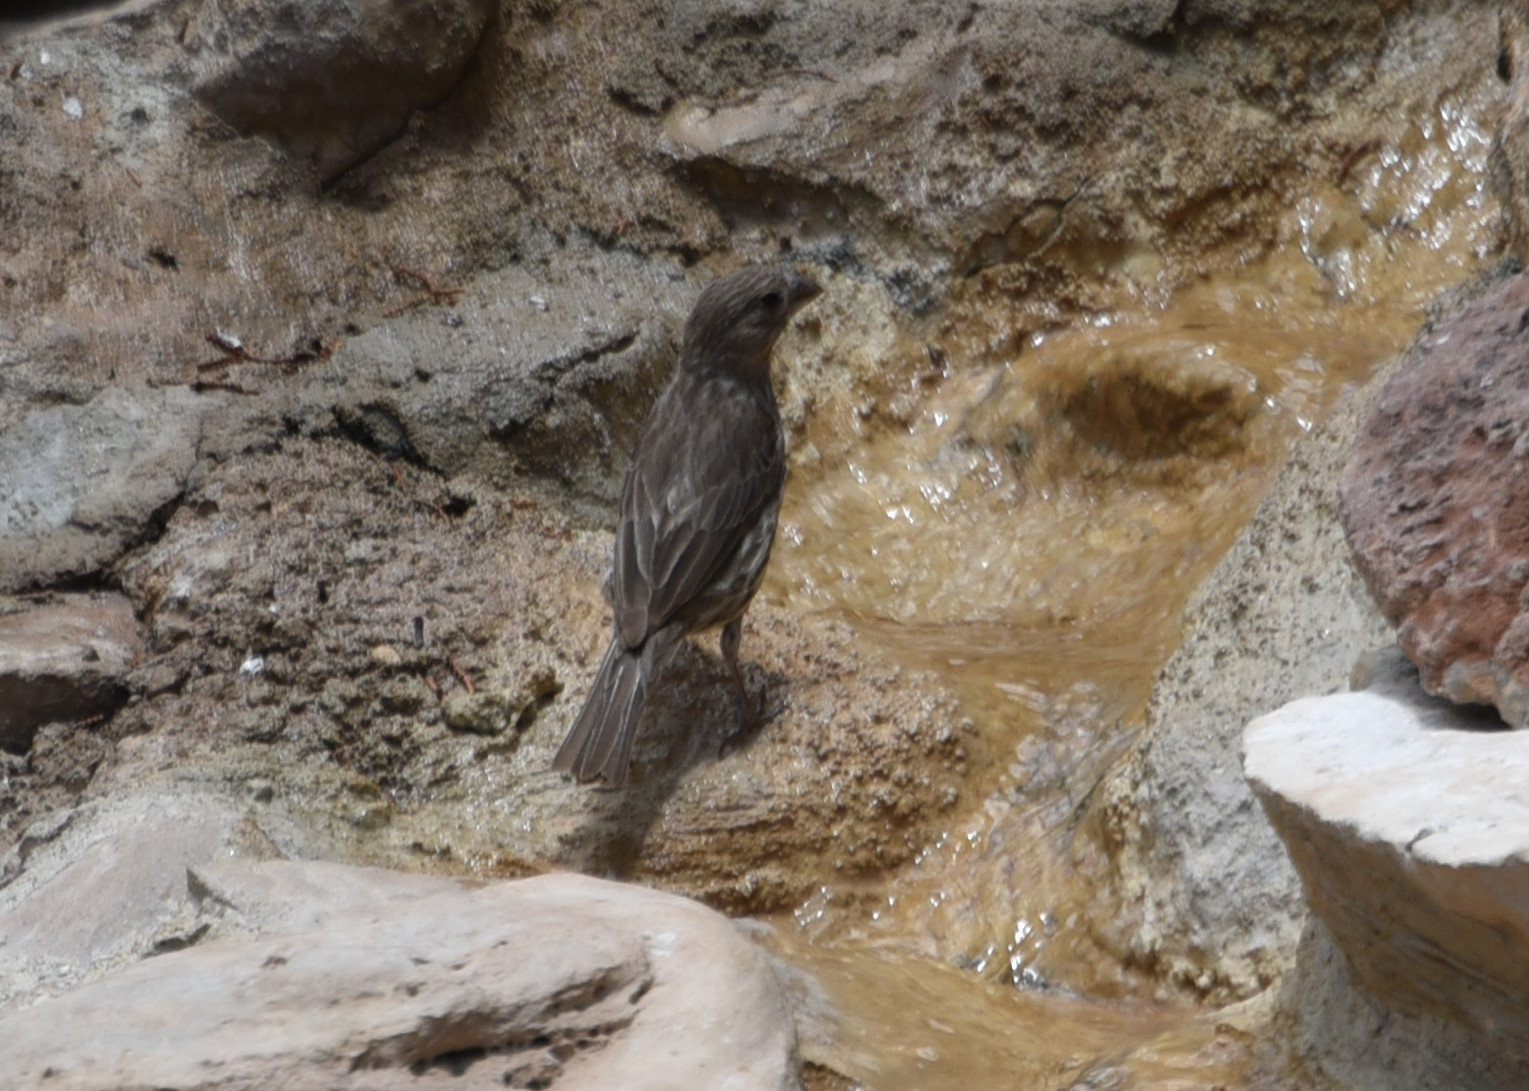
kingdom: Animalia
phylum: Chordata
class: Aves
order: Passeriformes
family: Fringillidae
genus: Haemorhous
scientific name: Haemorhous mexicanus
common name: House finch
